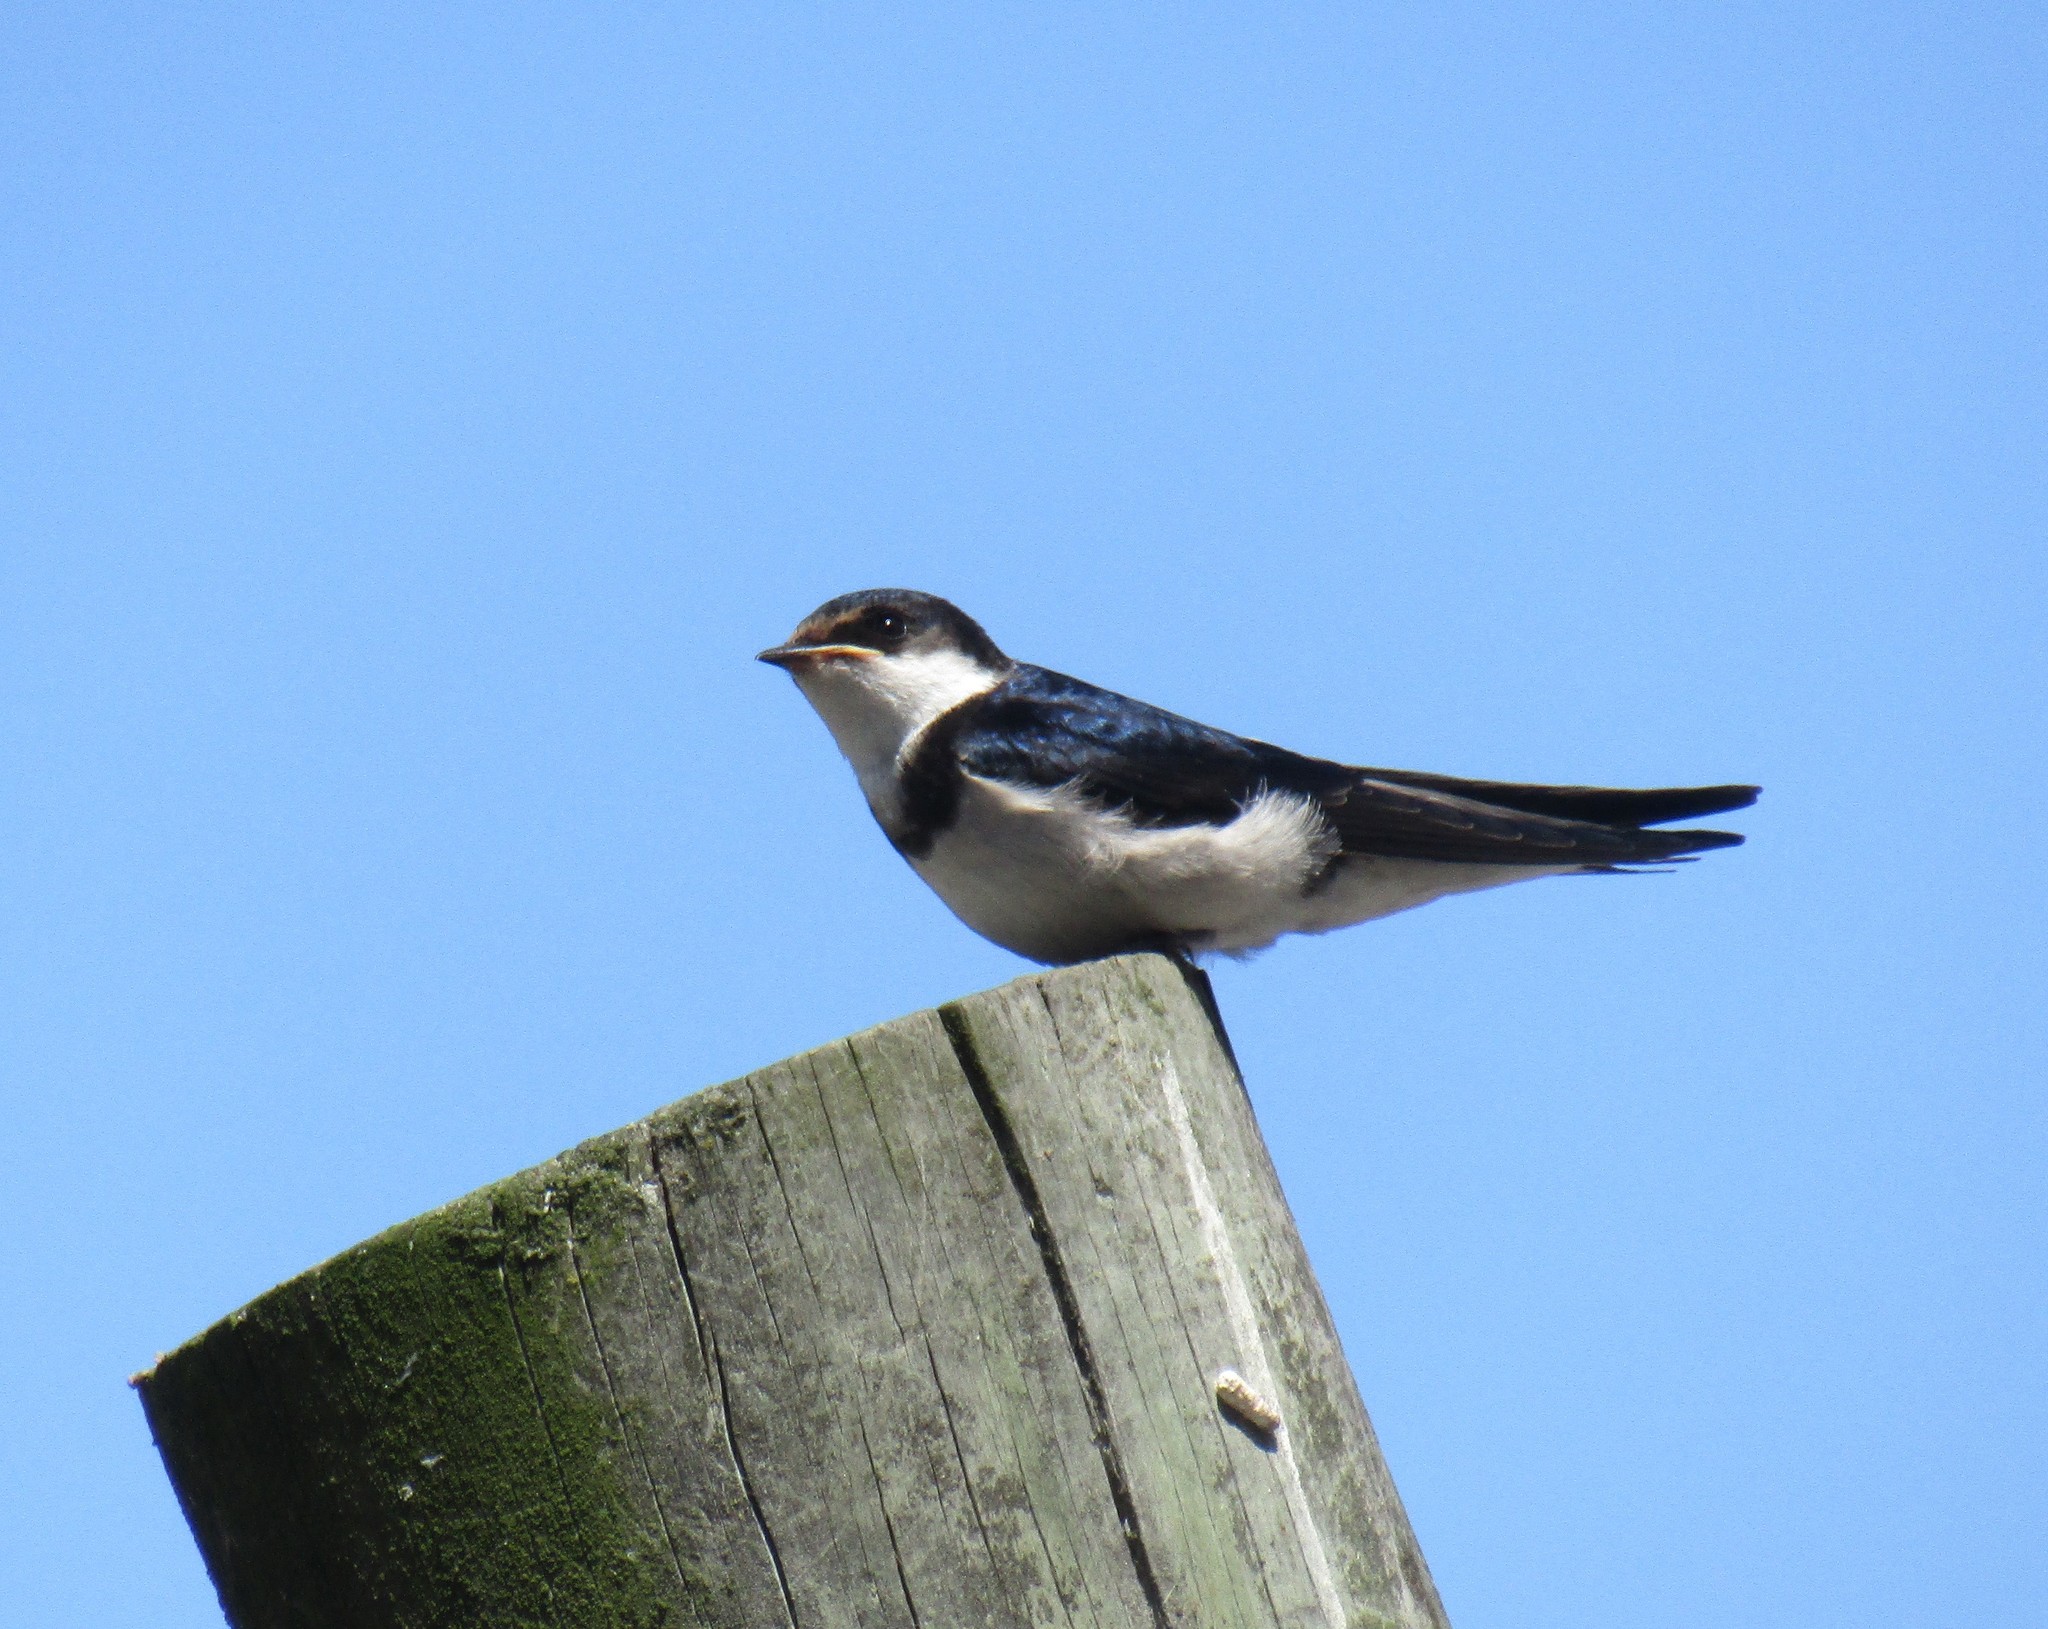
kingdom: Animalia
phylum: Chordata
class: Aves
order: Passeriformes
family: Hirundinidae
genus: Hirundo
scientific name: Hirundo albigularis
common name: White-throated swallow
